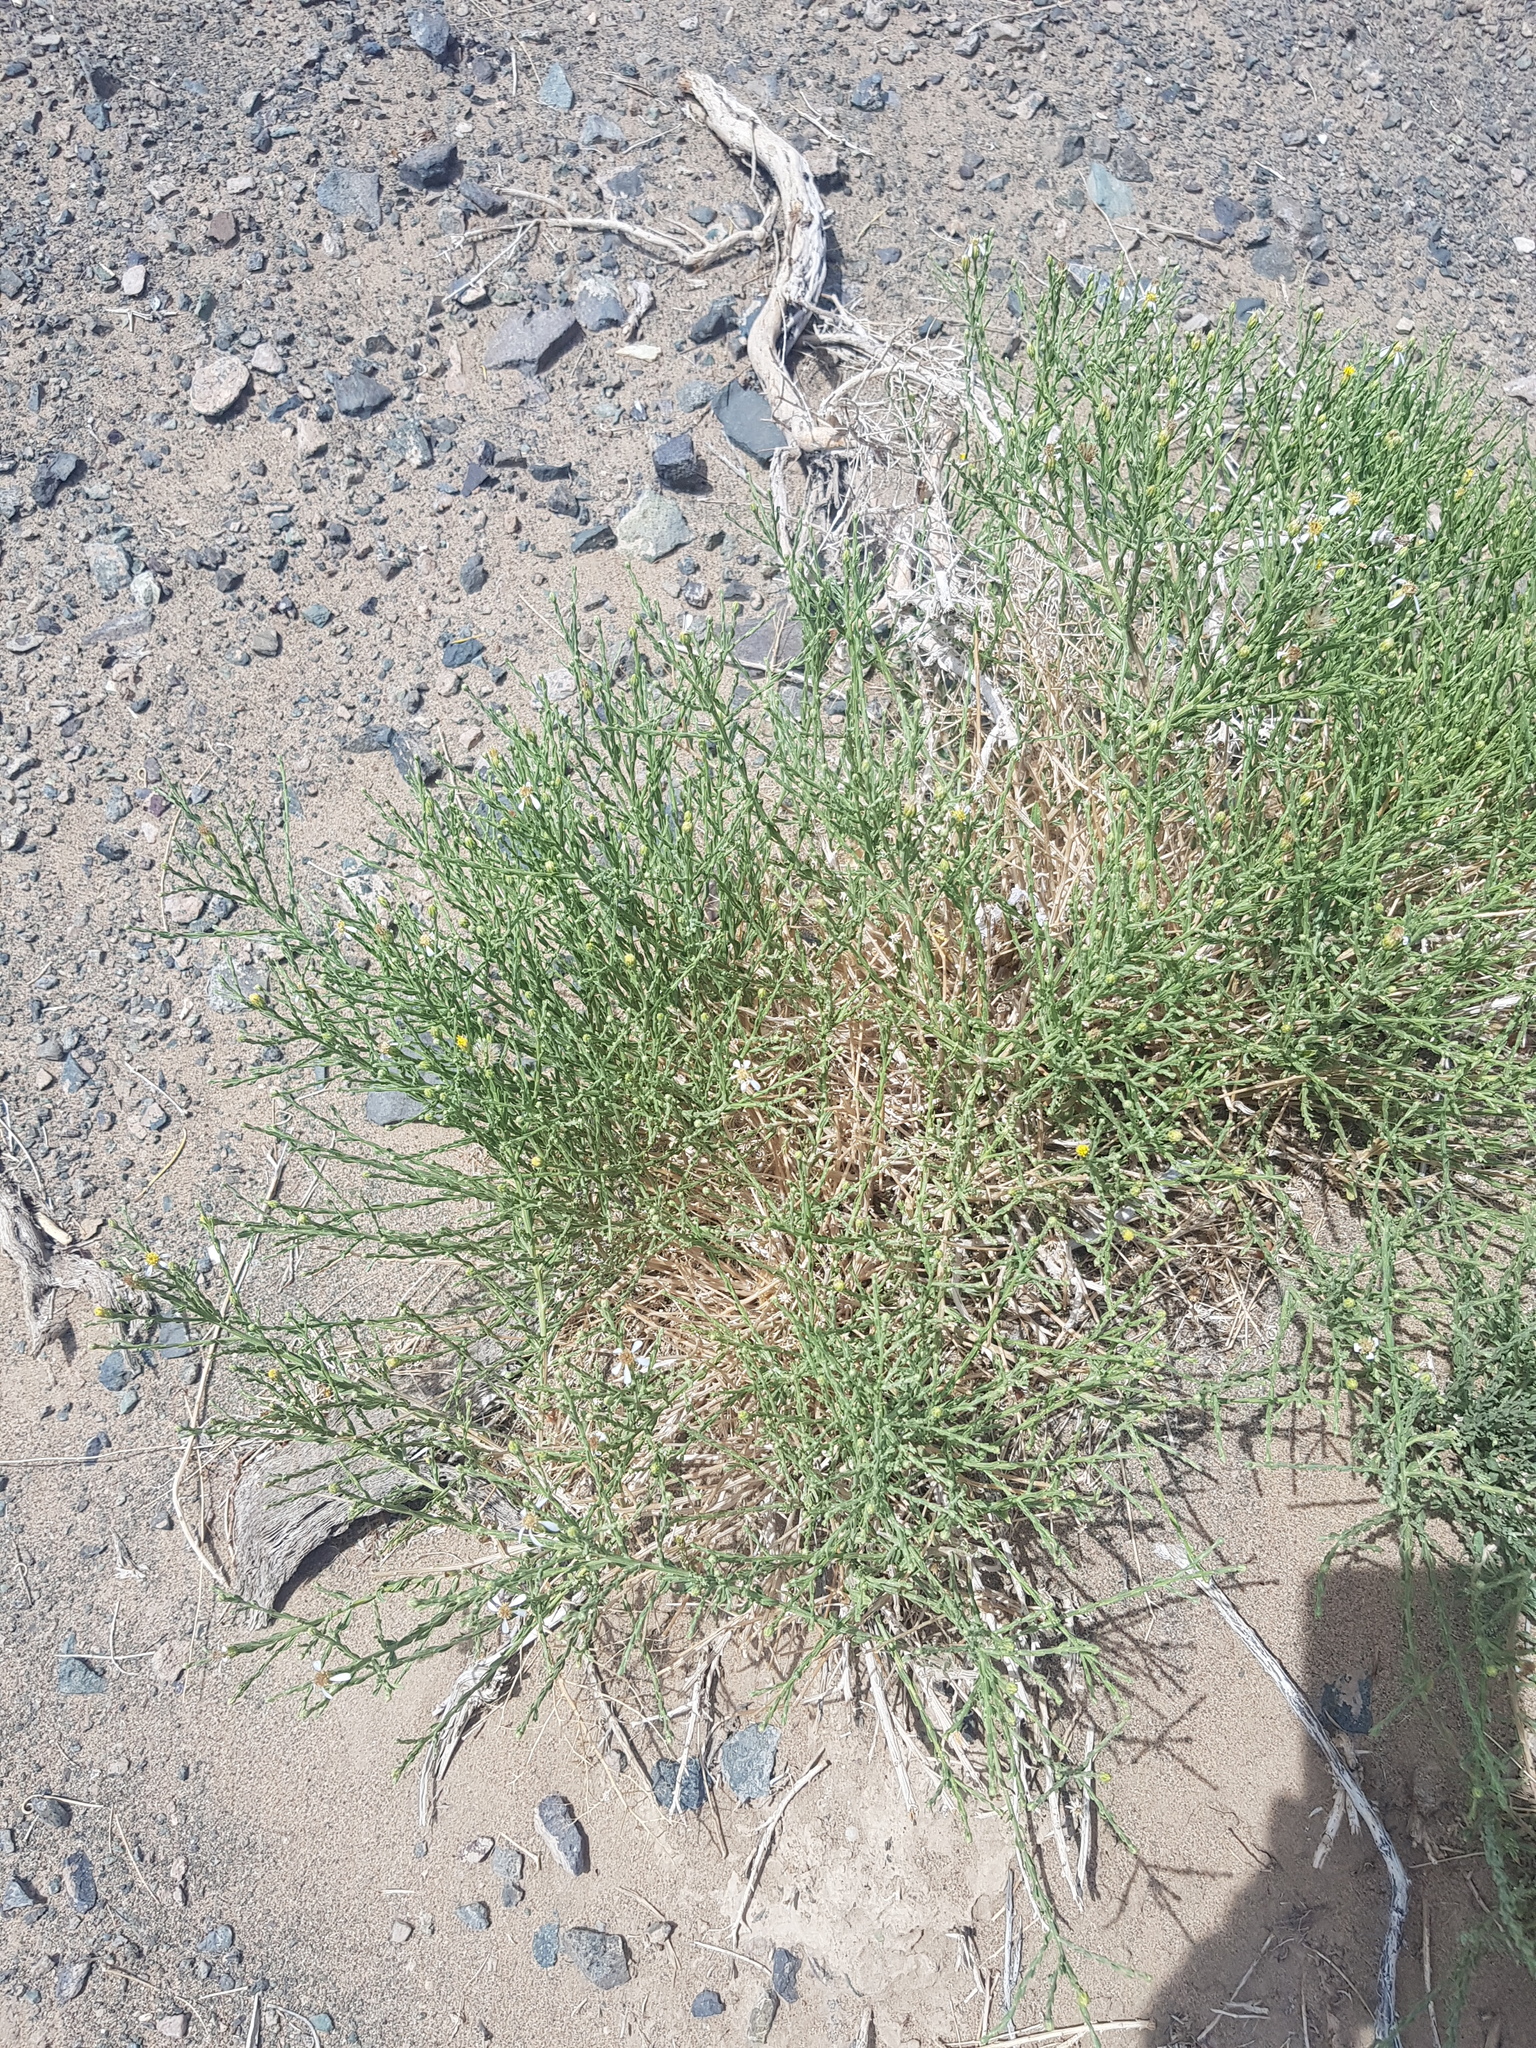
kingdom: Plantae
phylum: Tracheophyta
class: Magnoliopsida
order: Asterales
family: Asteraceae
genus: Asterothamnus
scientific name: Asterothamnus centraliasiaticus
